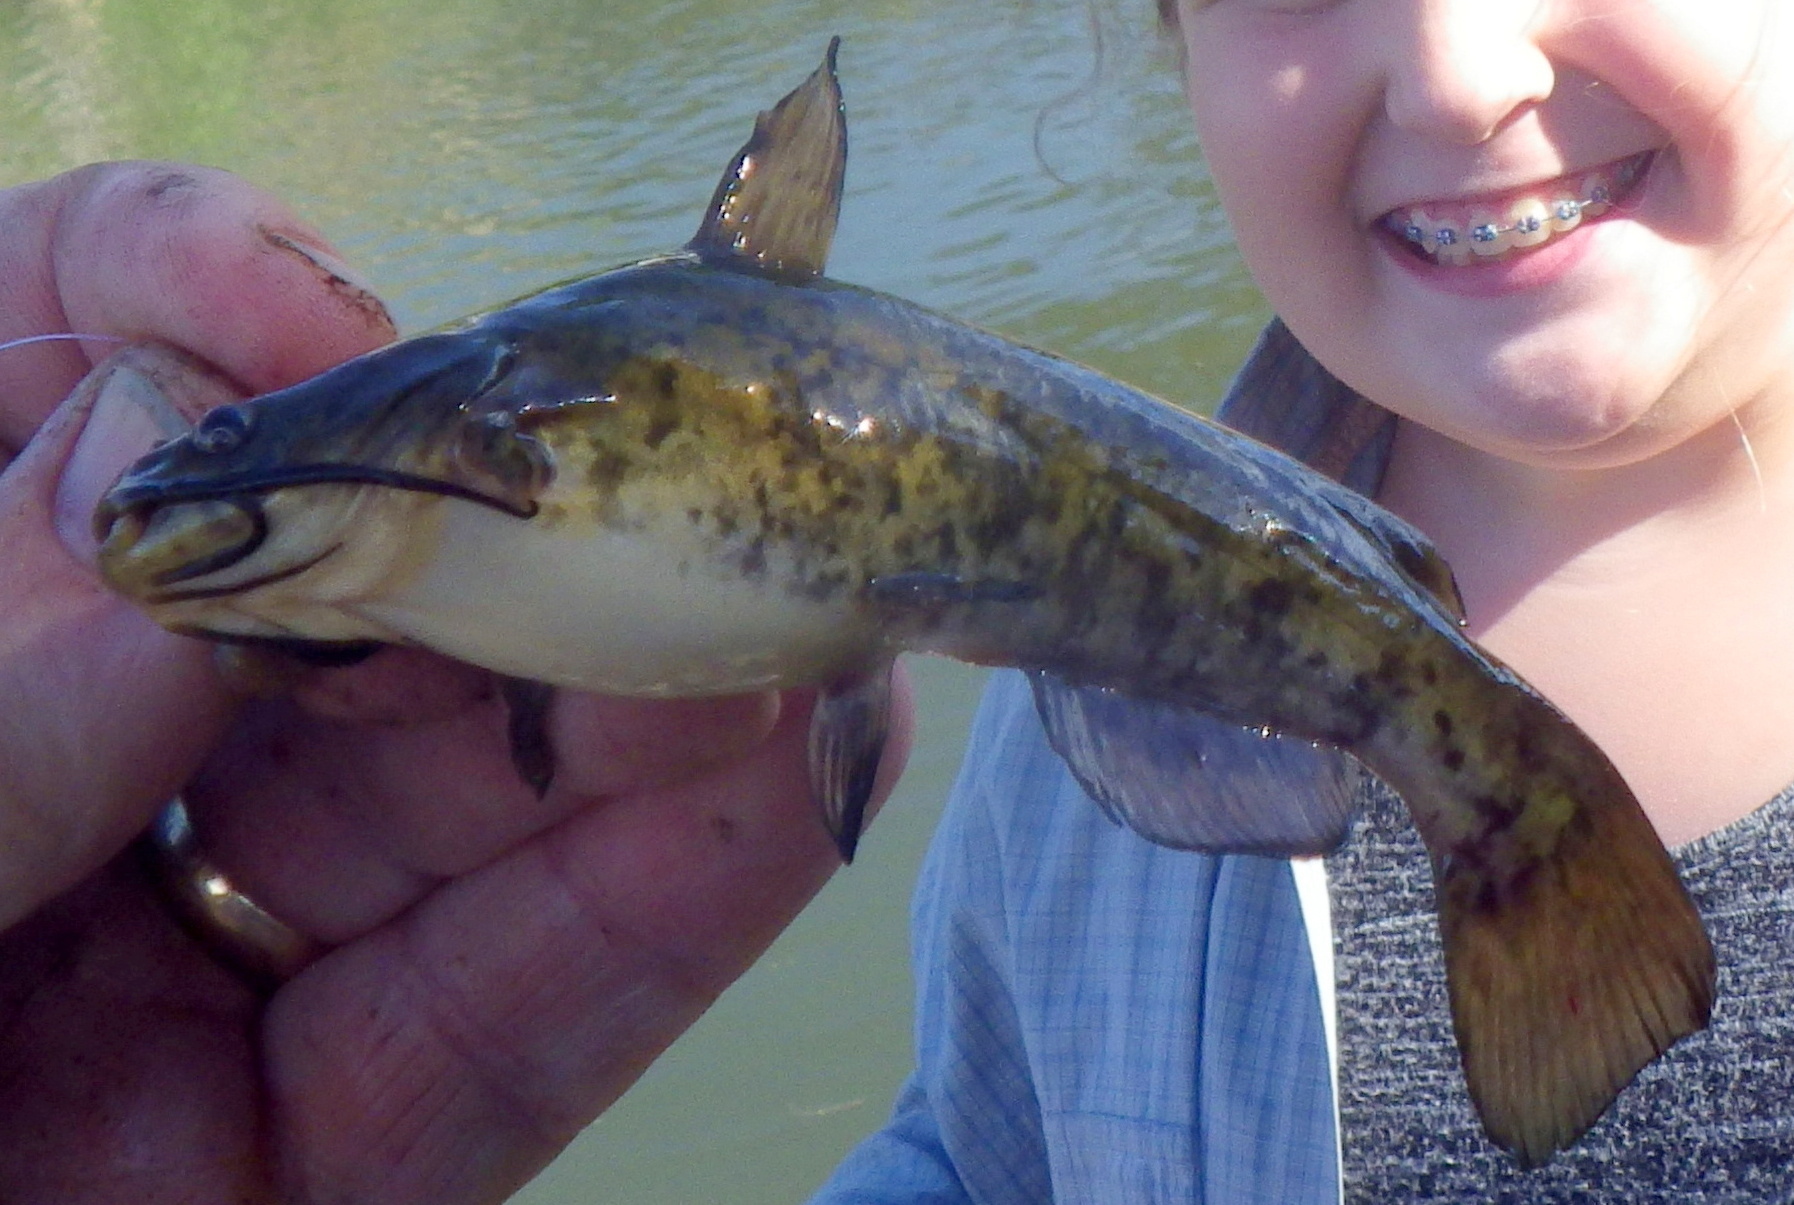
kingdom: Animalia
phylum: Chordata
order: Siluriformes
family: Ictaluridae
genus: Ameiurus
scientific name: Ameiurus nebulosus
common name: Brown bullhead
